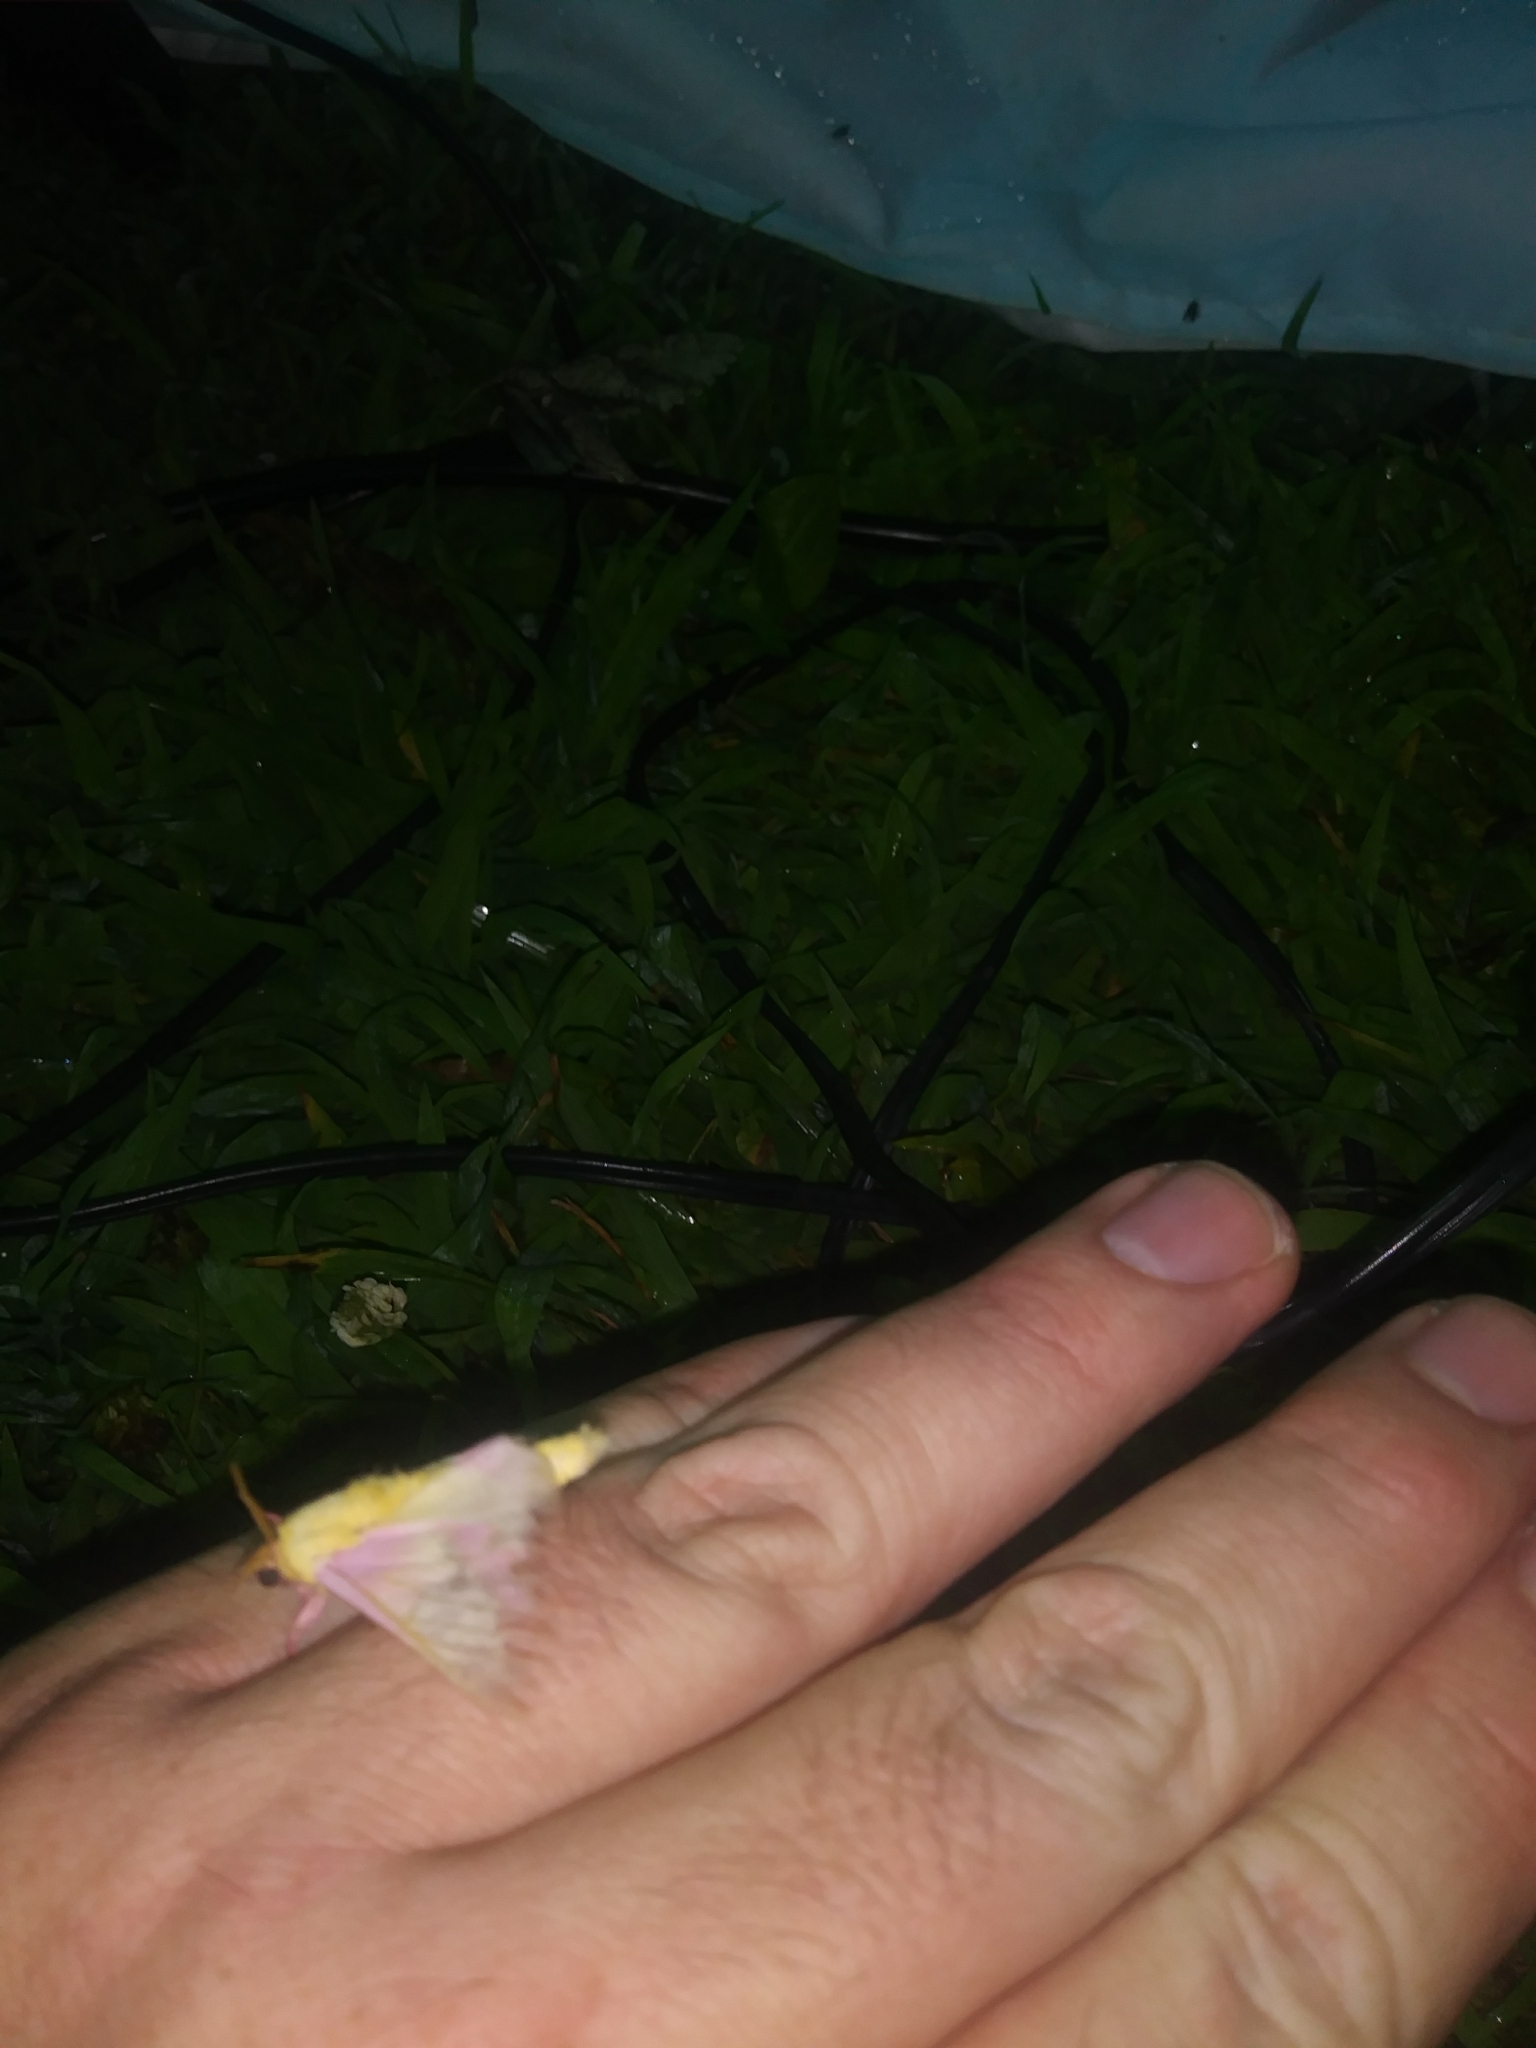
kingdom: Animalia
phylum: Arthropoda
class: Insecta
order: Lepidoptera
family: Saturniidae
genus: Dryocampa
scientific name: Dryocampa rubicunda
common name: Rosy maple moth
